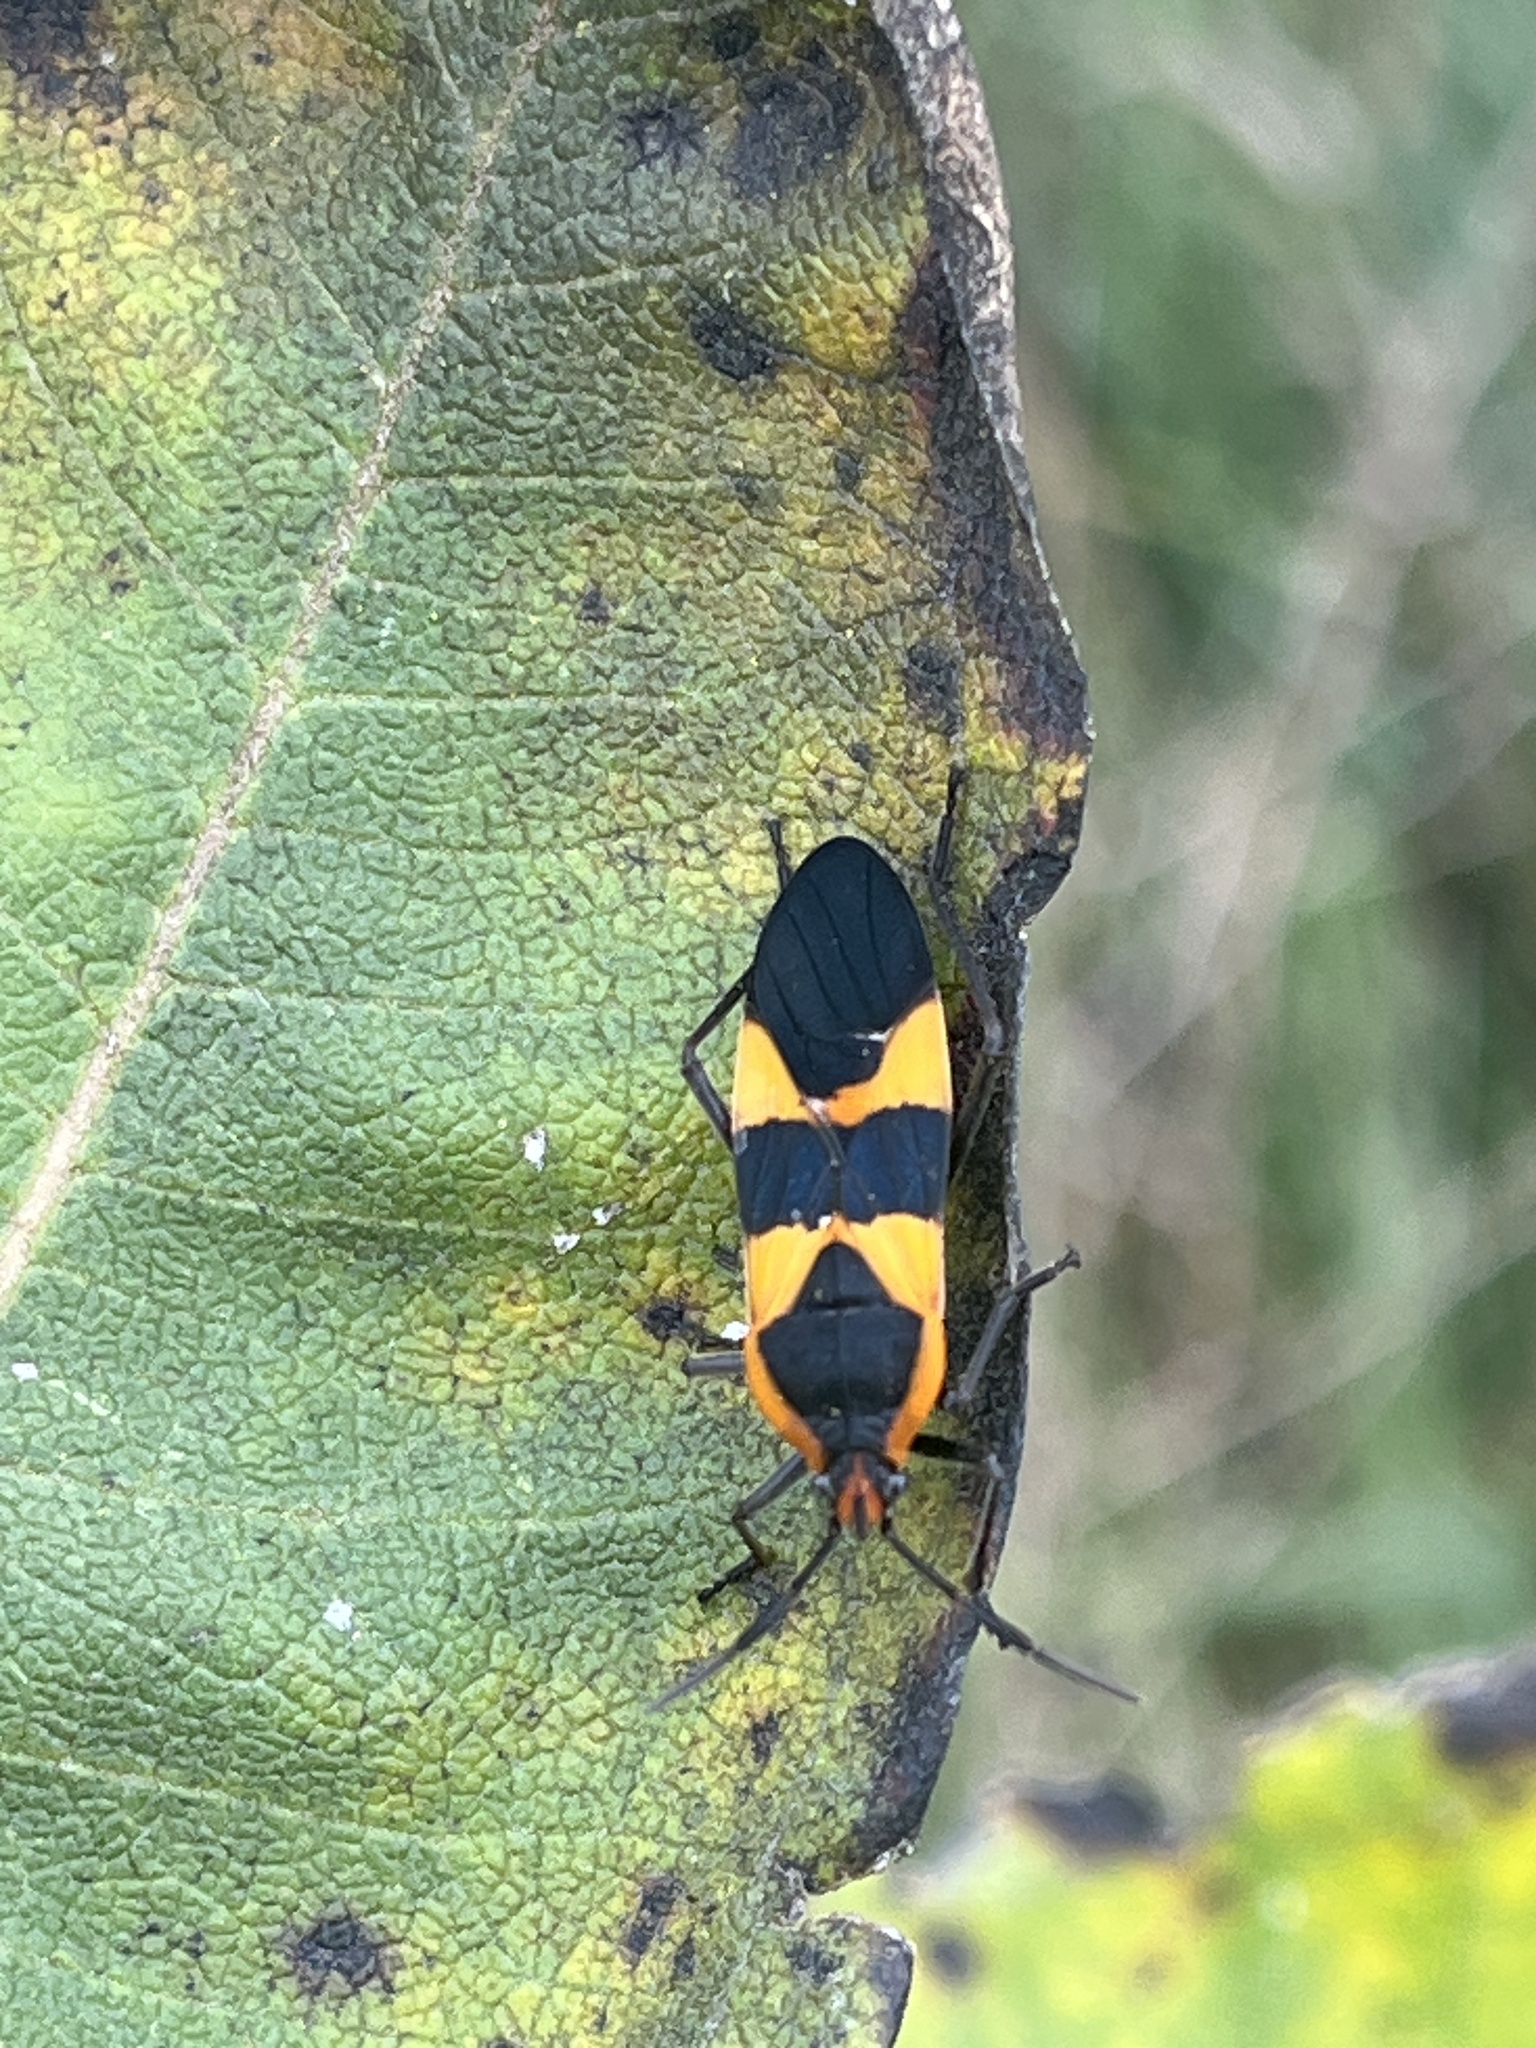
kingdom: Animalia
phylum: Arthropoda
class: Insecta
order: Hemiptera
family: Lygaeidae
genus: Oncopeltus
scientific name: Oncopeltus fasciatus
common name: Large milkweed bug
